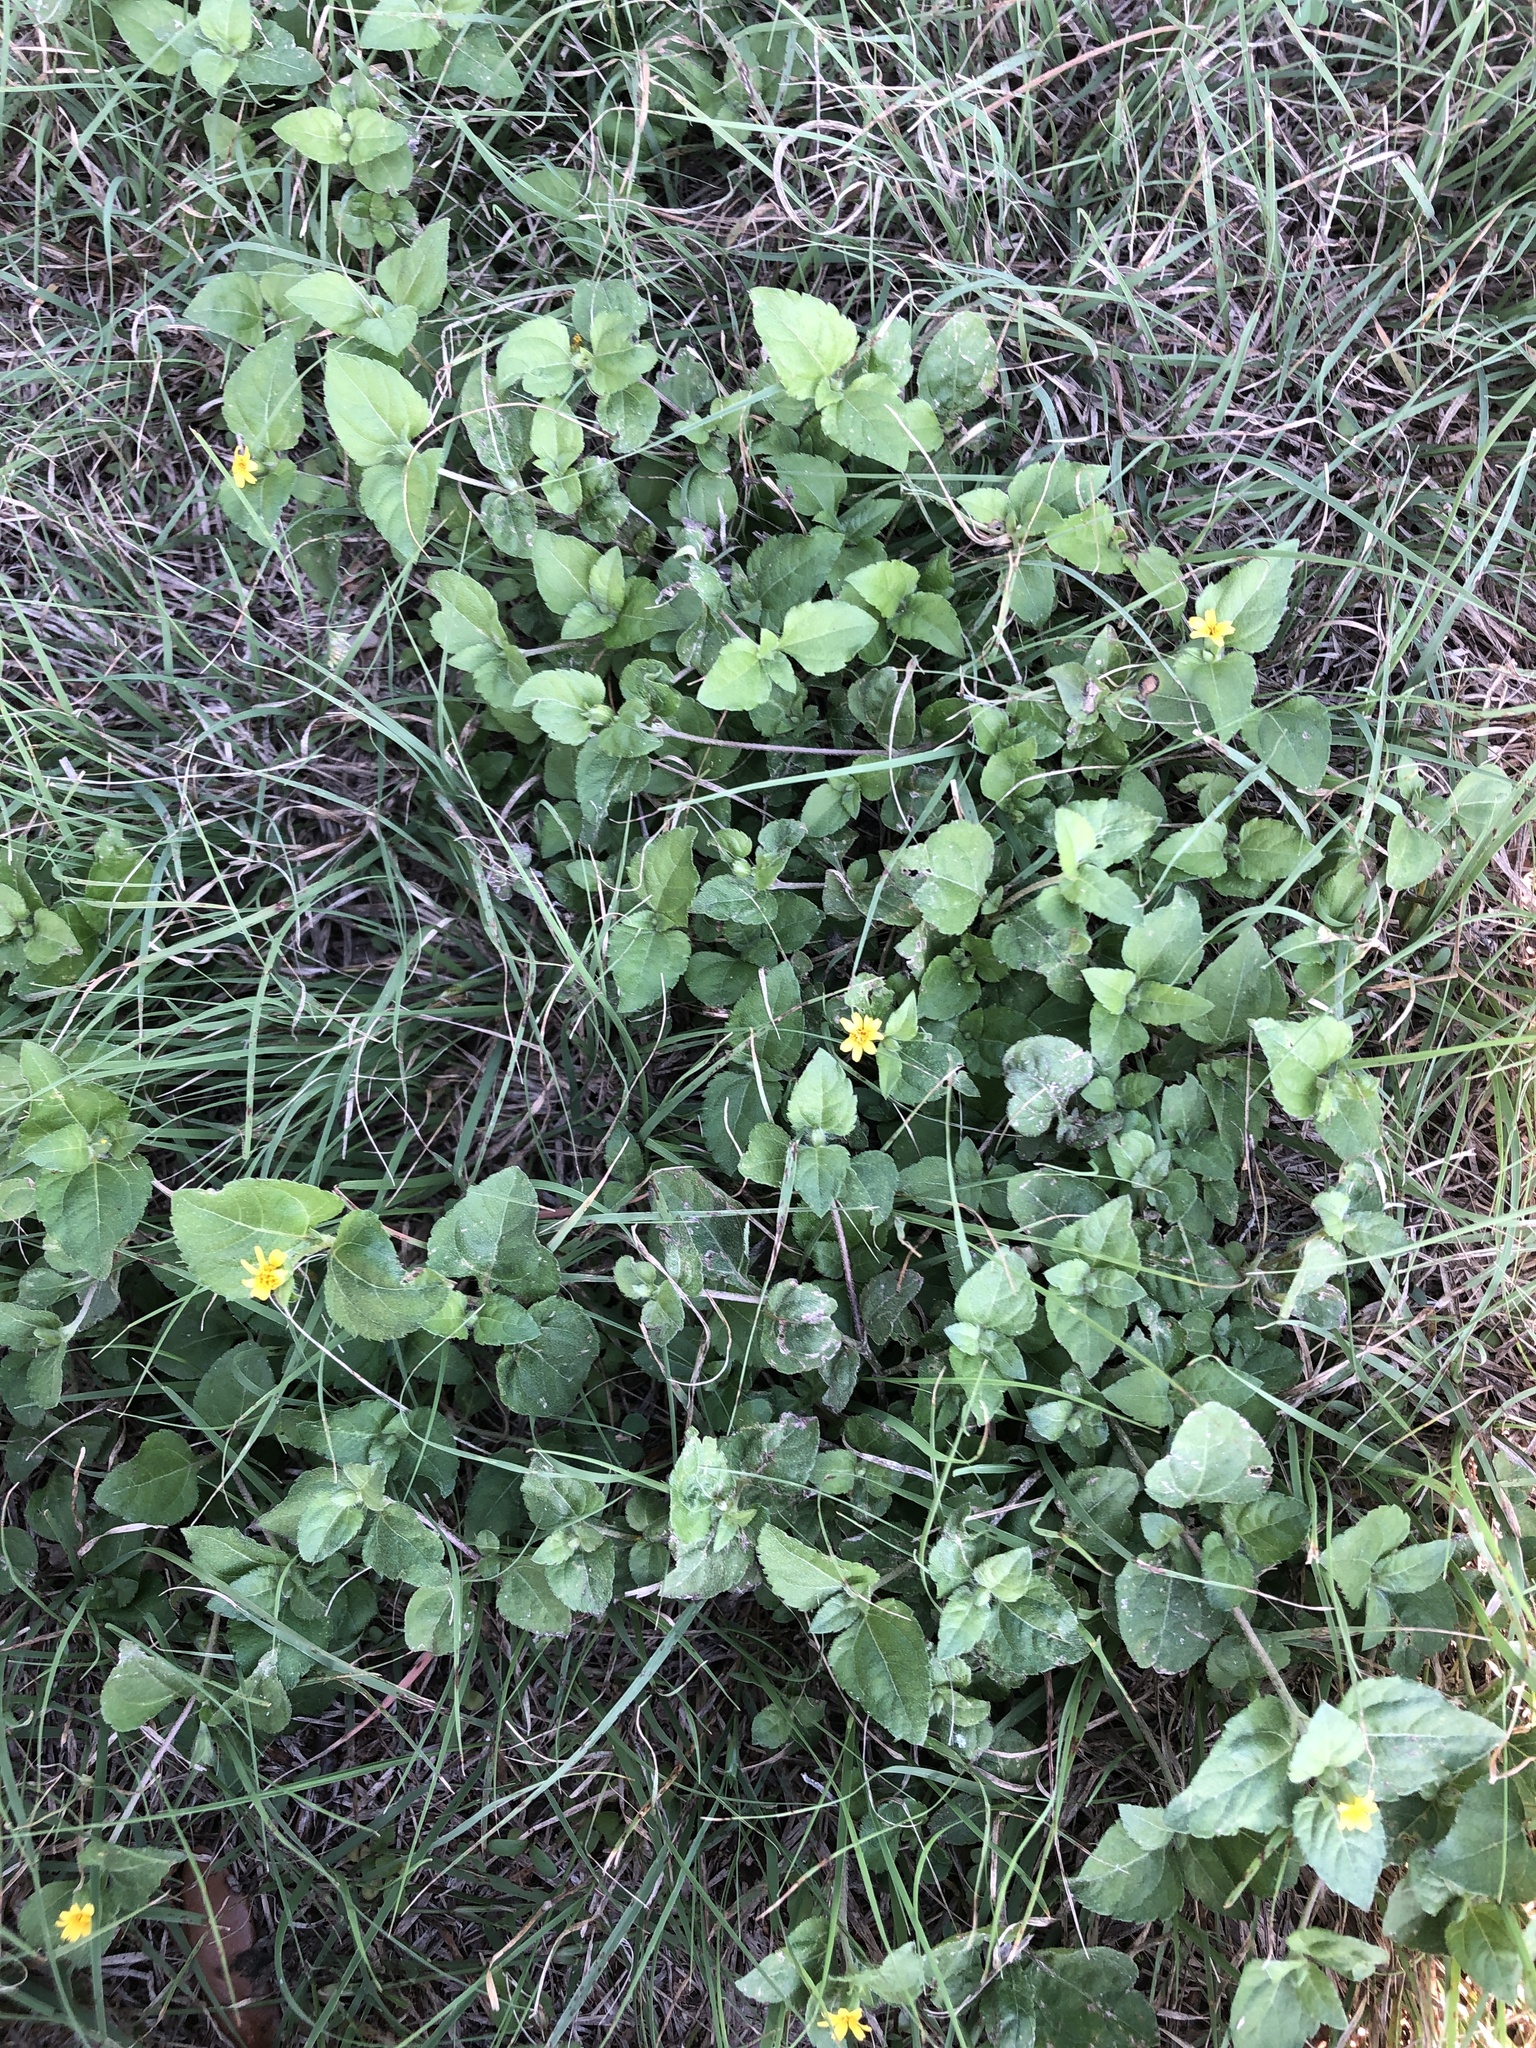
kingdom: Plantae
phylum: Tracheophyta
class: Magnoliopsida
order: Asterales
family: Asteraceae
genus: Calyptocarpus
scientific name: Calyptocarpus vialis
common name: Straggler daisy
